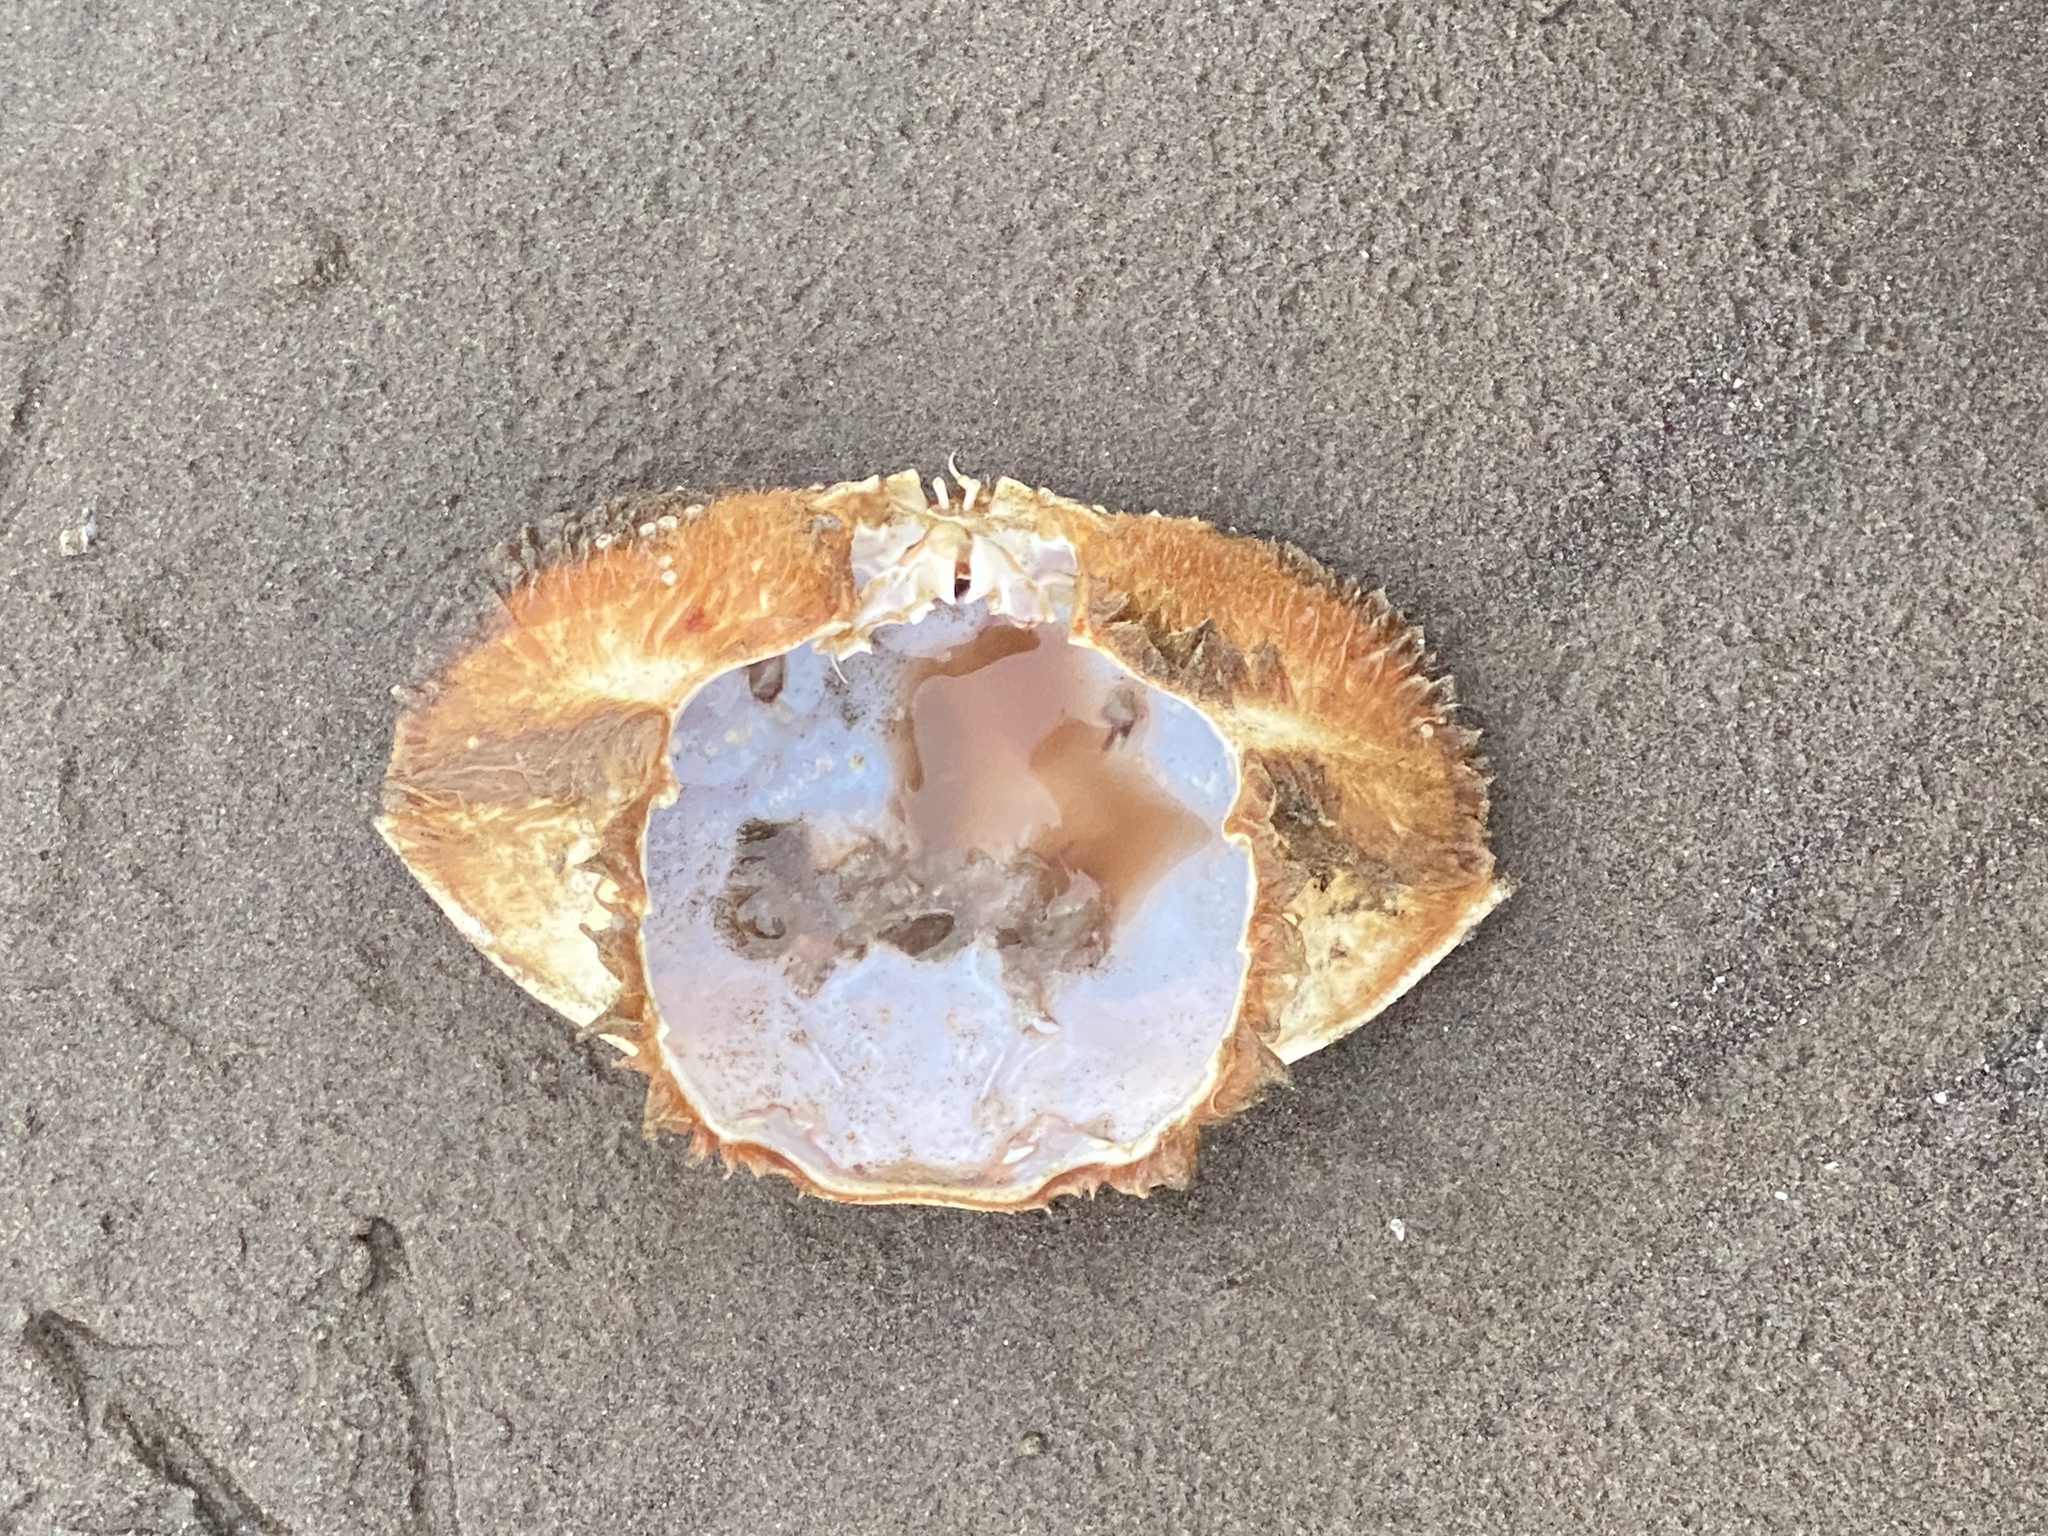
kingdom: Animalia
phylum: Arthropoda
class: Malacostraca
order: Decapoda
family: Cancridae
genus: Metacarcinus
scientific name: Metacarcinus magister
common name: Californian crab
